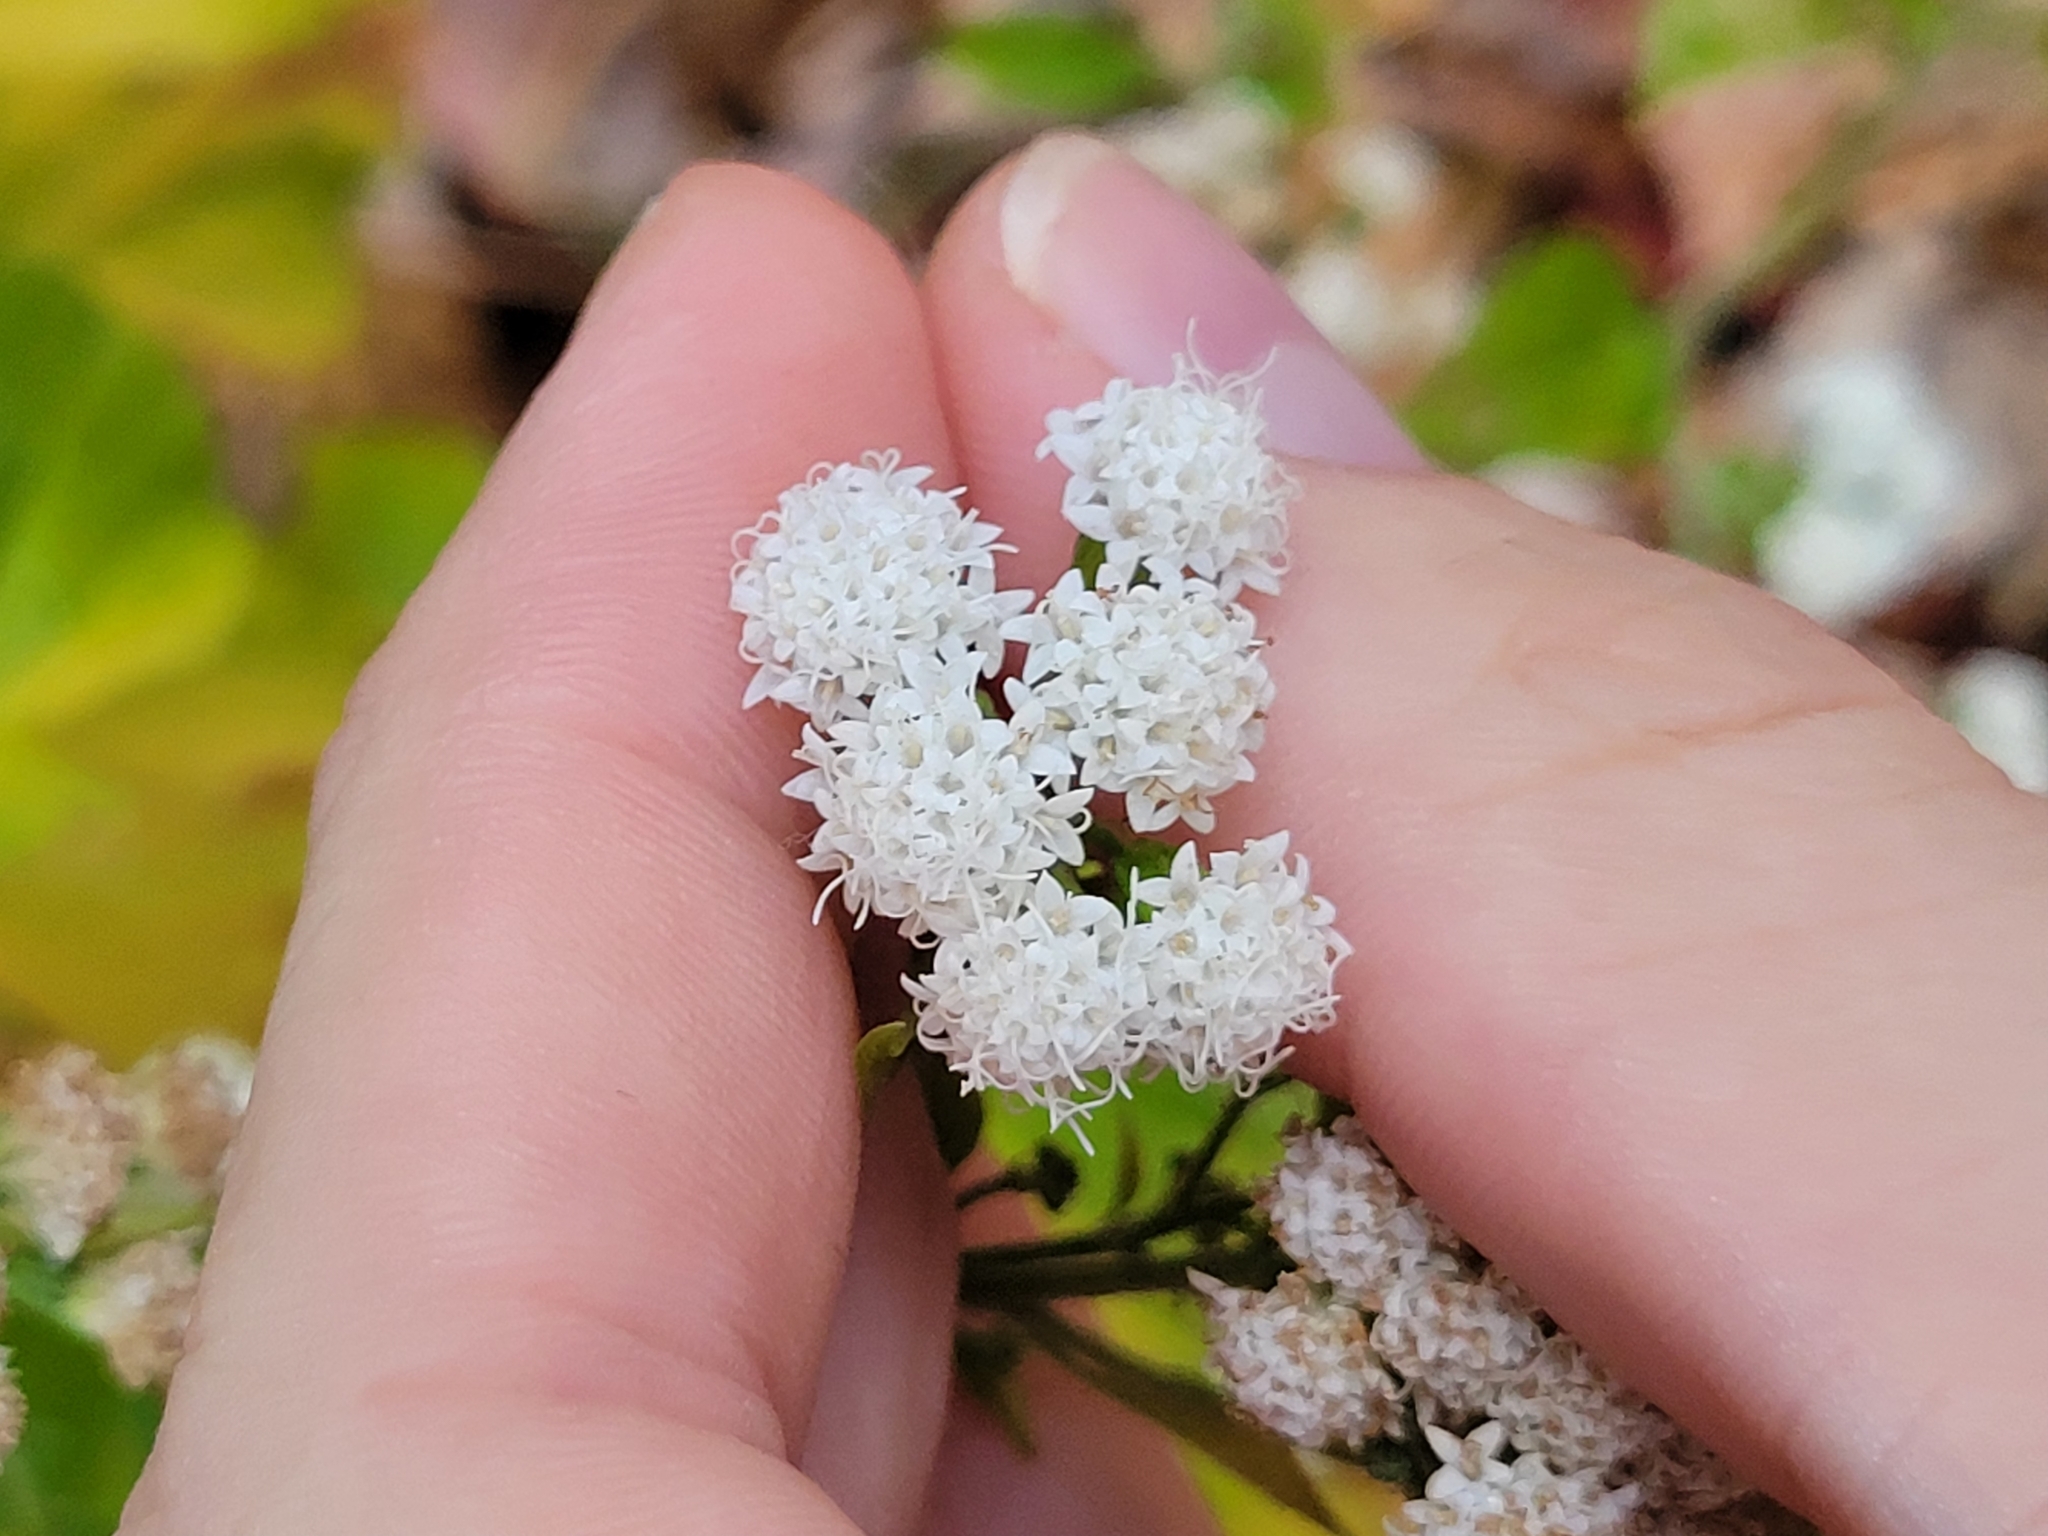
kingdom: Plantae
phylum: Tracheophyta
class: Magnoliopsida
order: Asterales
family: Asteraceae
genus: Ageratina
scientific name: Ageratina altissima
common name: White snakeroot
